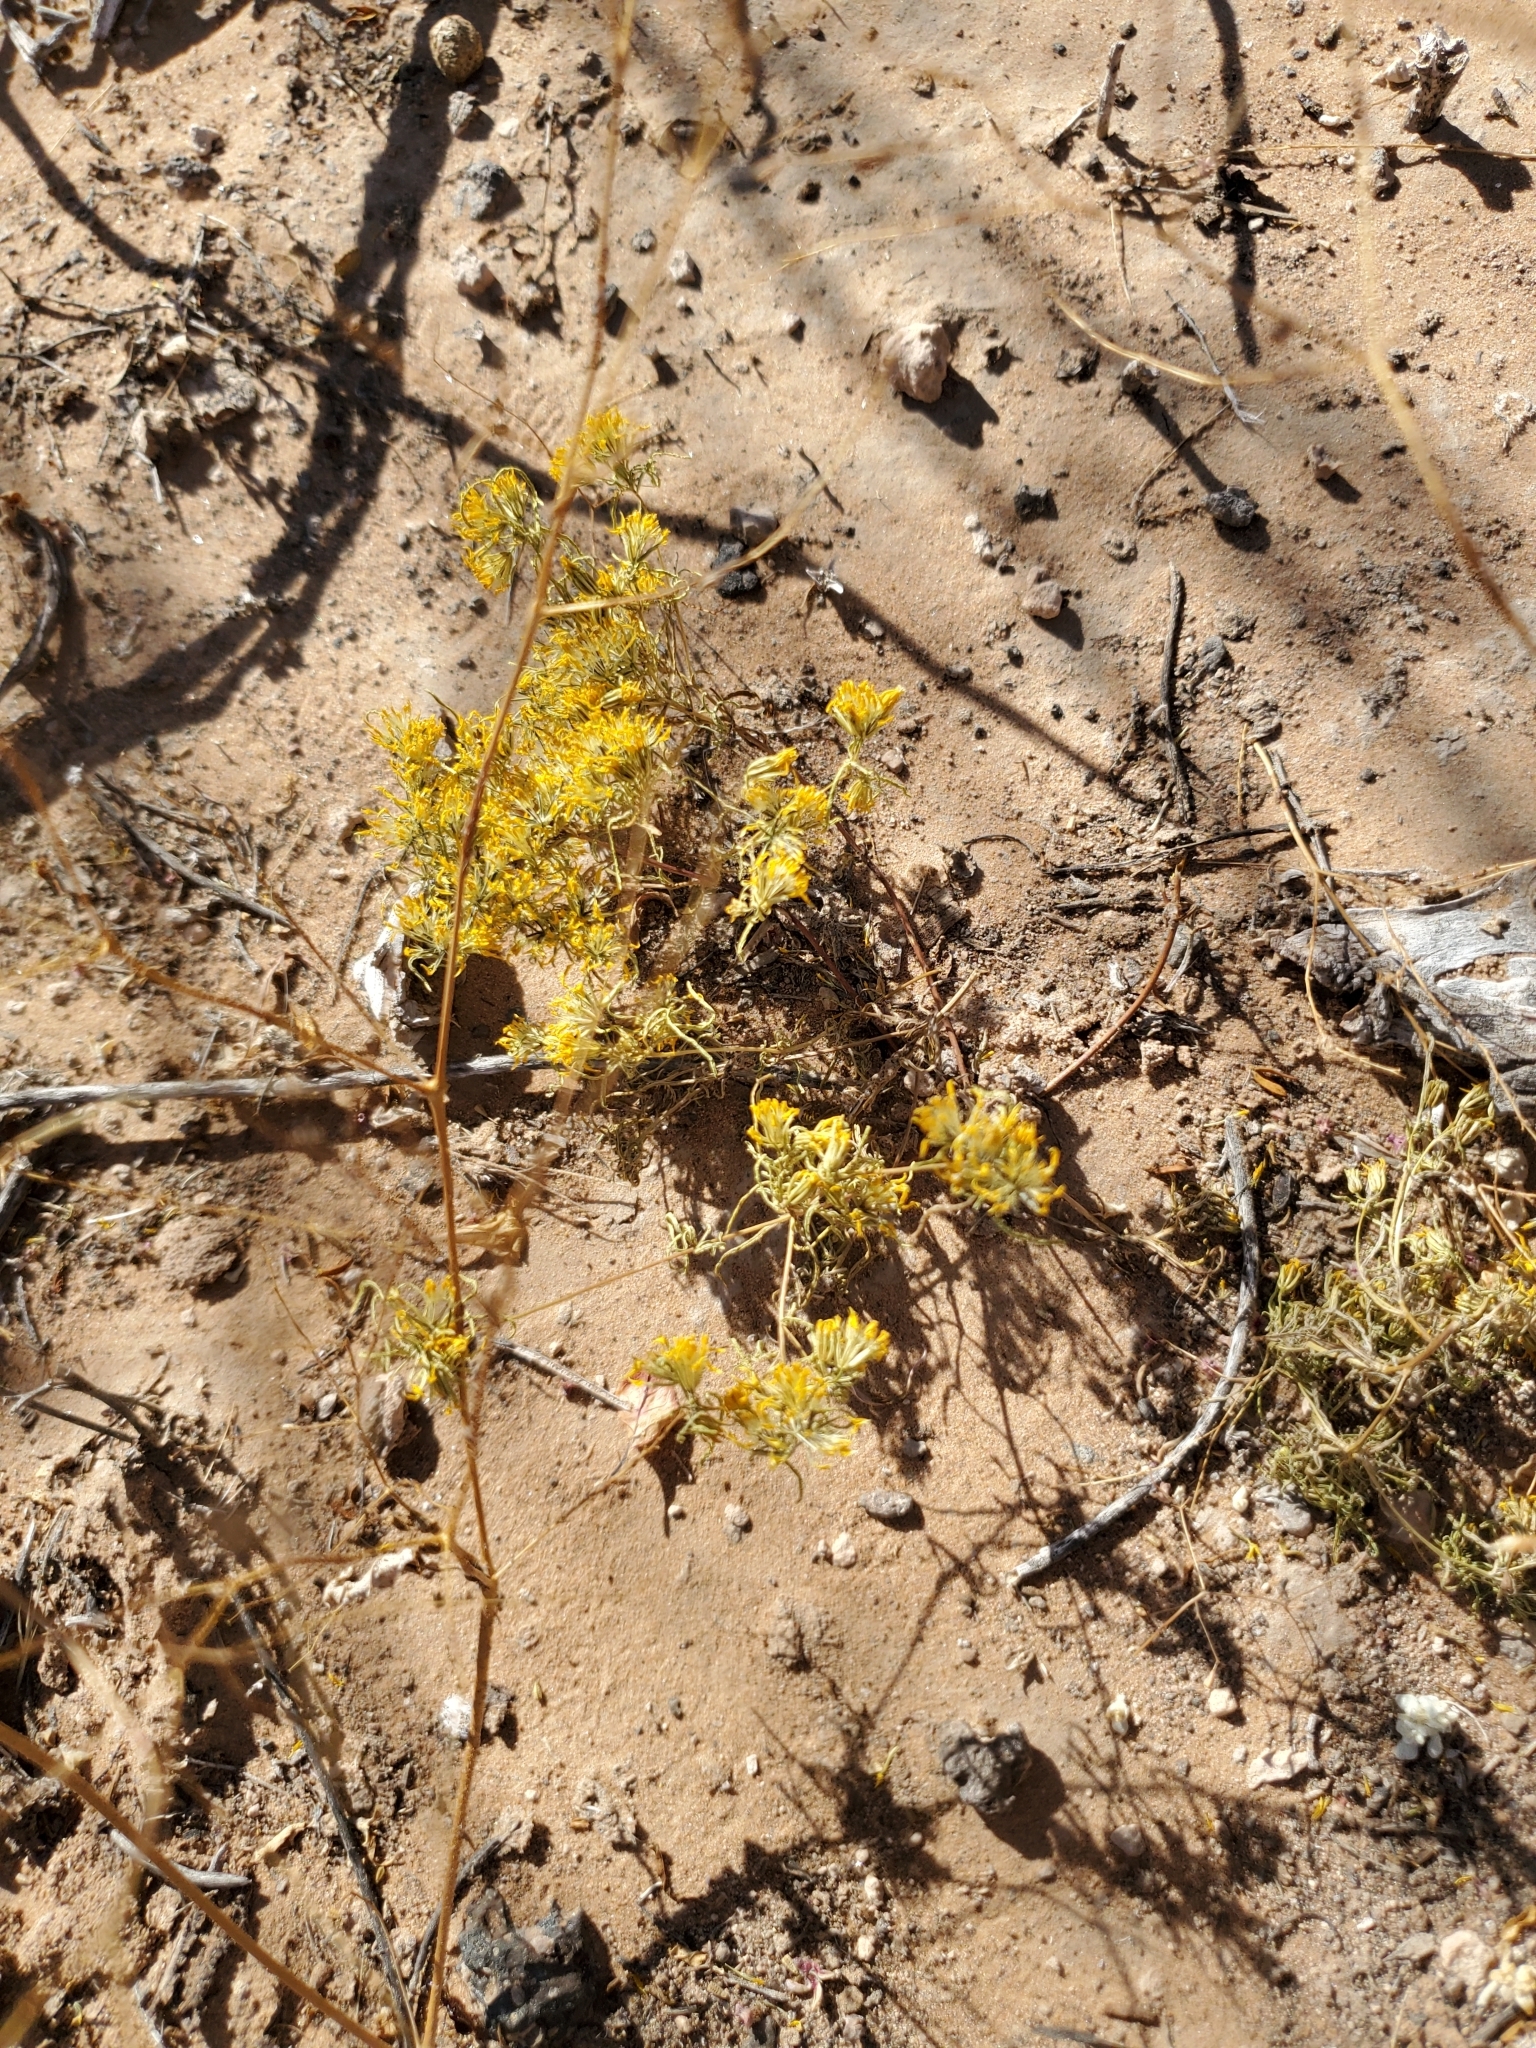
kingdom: Plantae
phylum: Tracheophyta
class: Magnoliopsida
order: Asterales
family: Asteraceae
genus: Pectis
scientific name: Pectis papposa
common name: Many-bristle chinchweed
